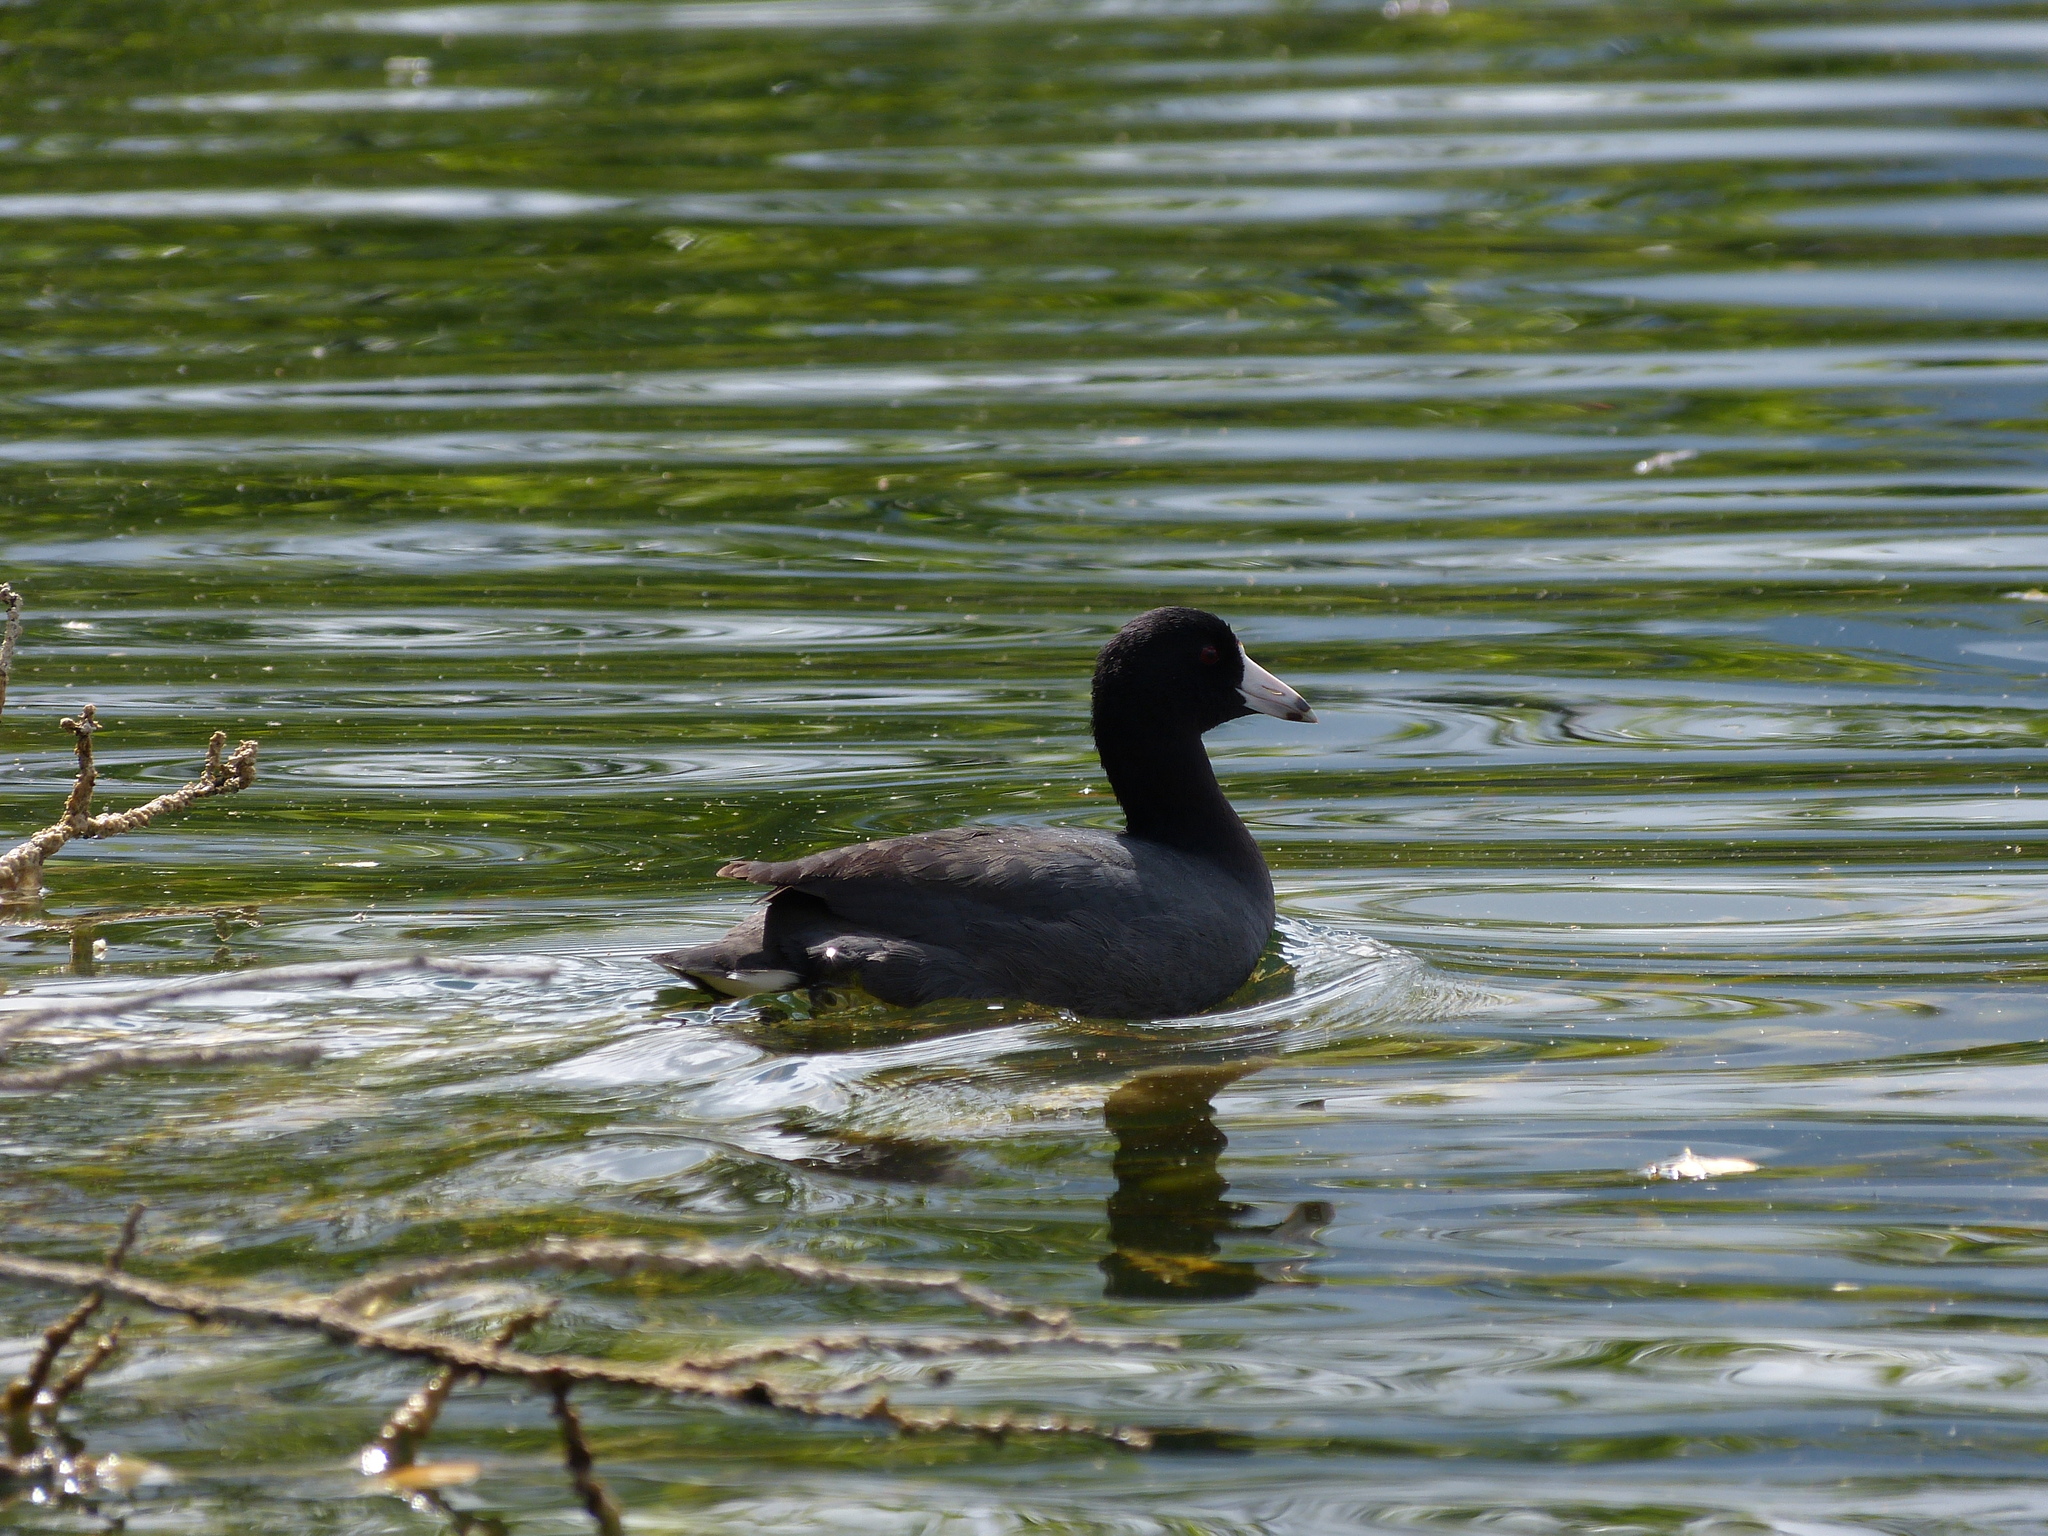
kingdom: Animalia
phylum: Chordata
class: Aves
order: Gruiformes
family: Rallidae
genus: Fulica
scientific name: Fulica americana
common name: American coot
